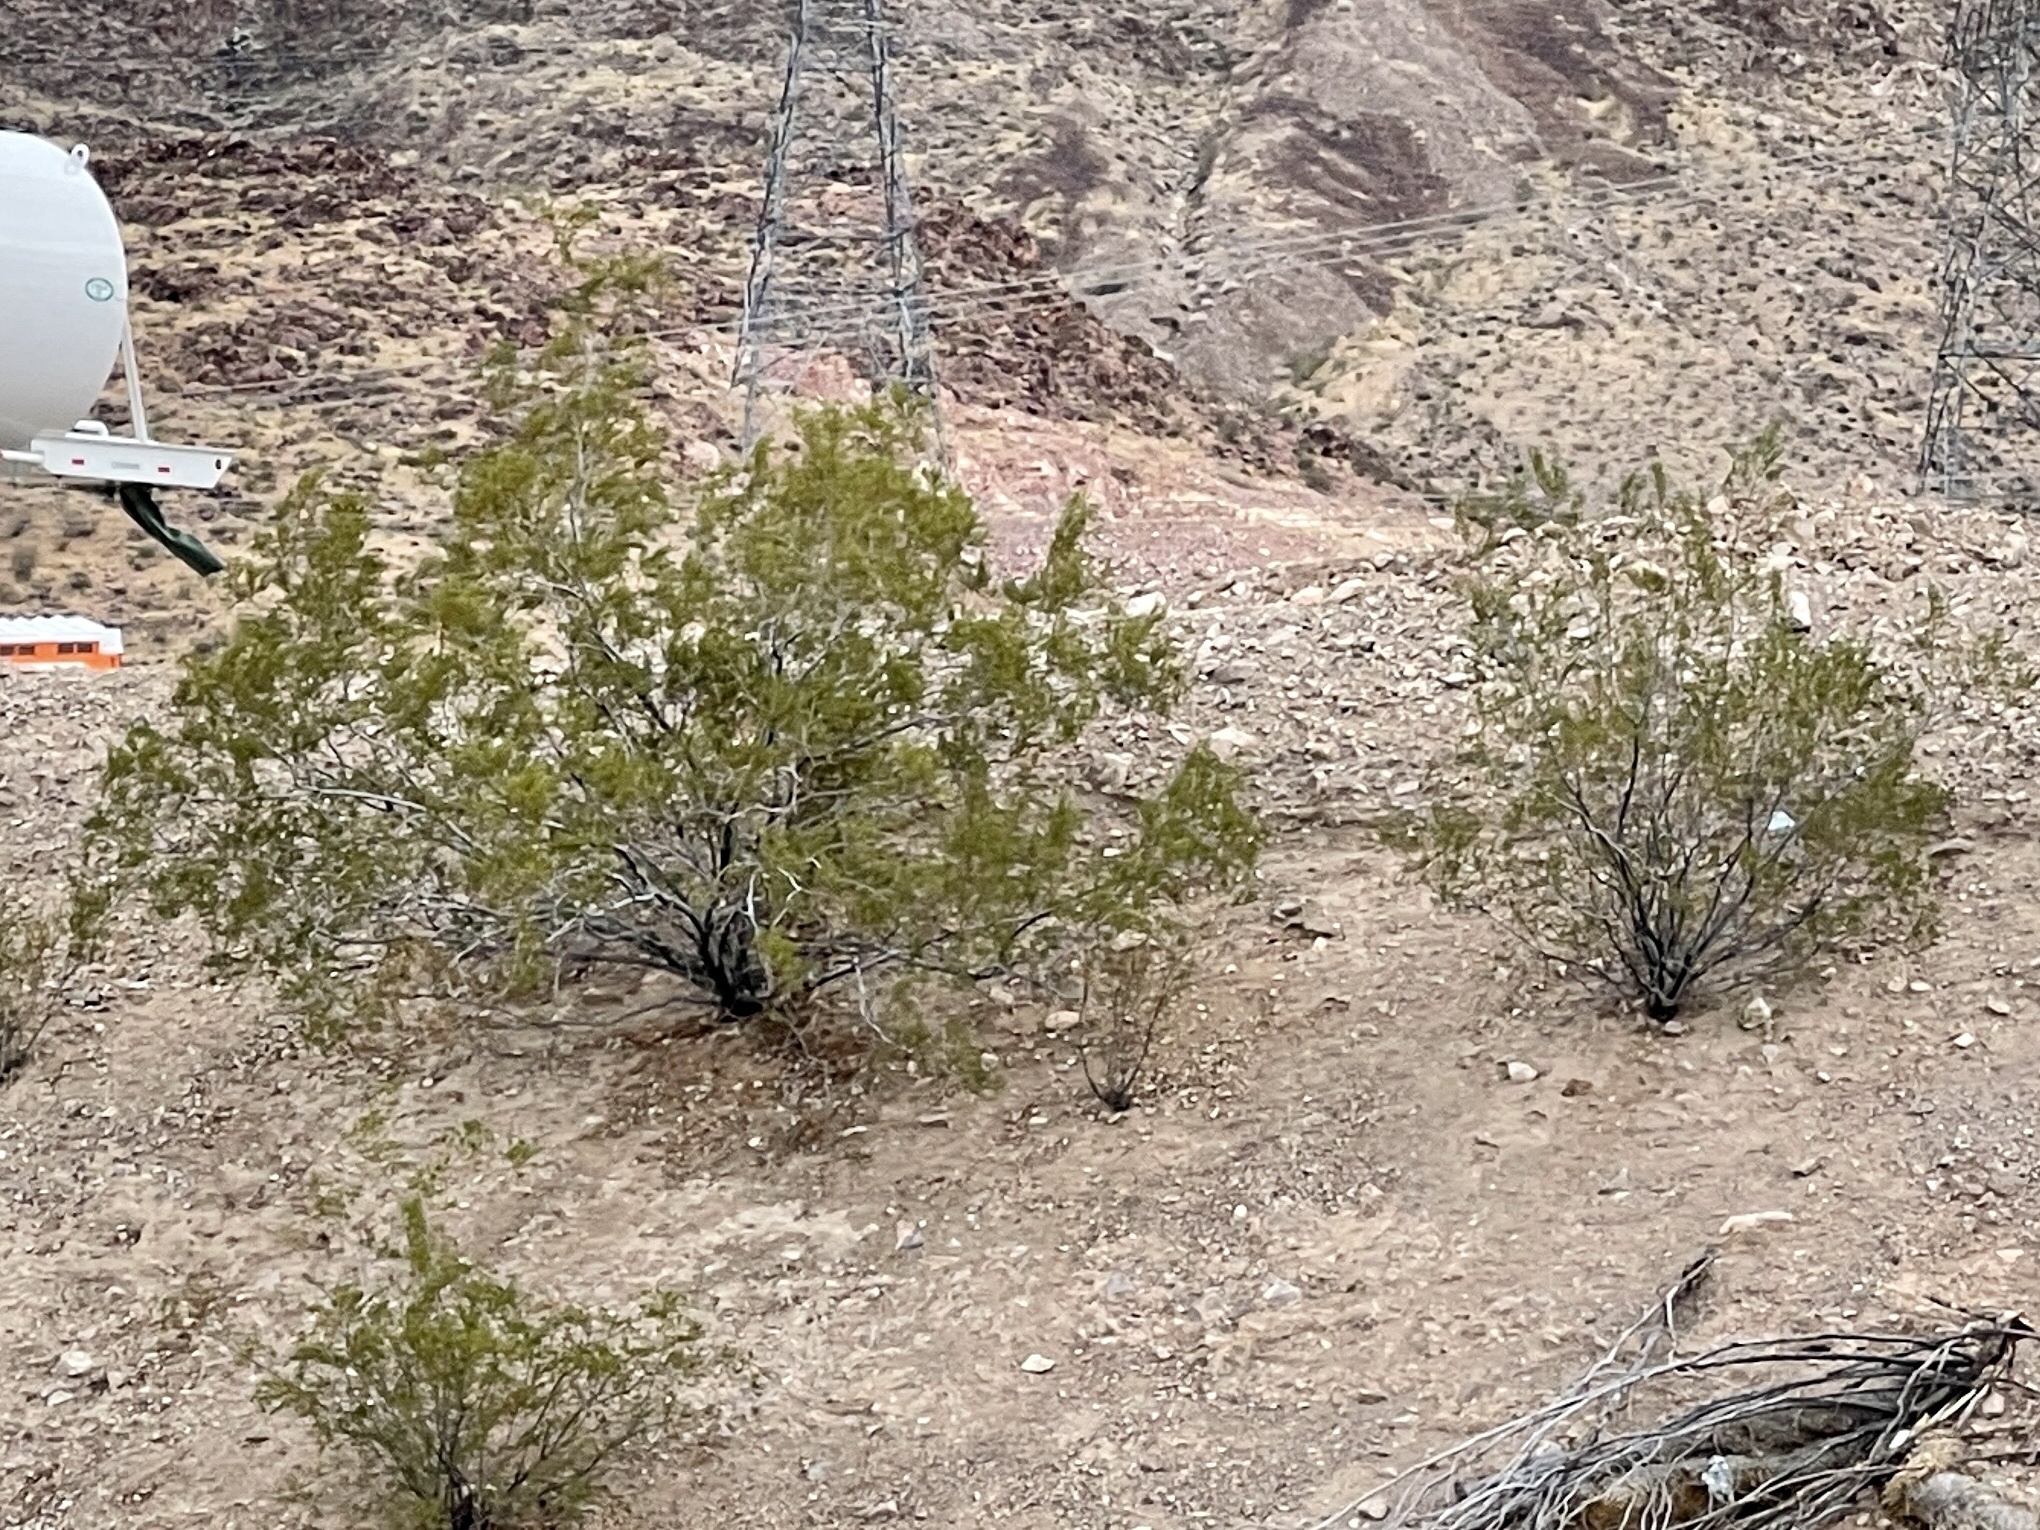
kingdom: Plantae
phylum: Tracheophyta
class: Magnoliopsida
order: Zygophyllales
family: Zygophyllaceae
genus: Larrea
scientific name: Larrea tridentata
